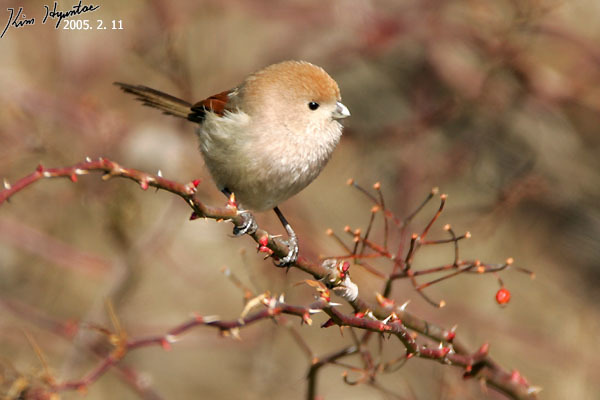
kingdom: Animalia
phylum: Chordata
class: Aves
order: Passeriformes
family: Sylviidae
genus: Sinosuthora
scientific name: Sinosuthora webbiana
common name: Vinous-throated parrotbill
